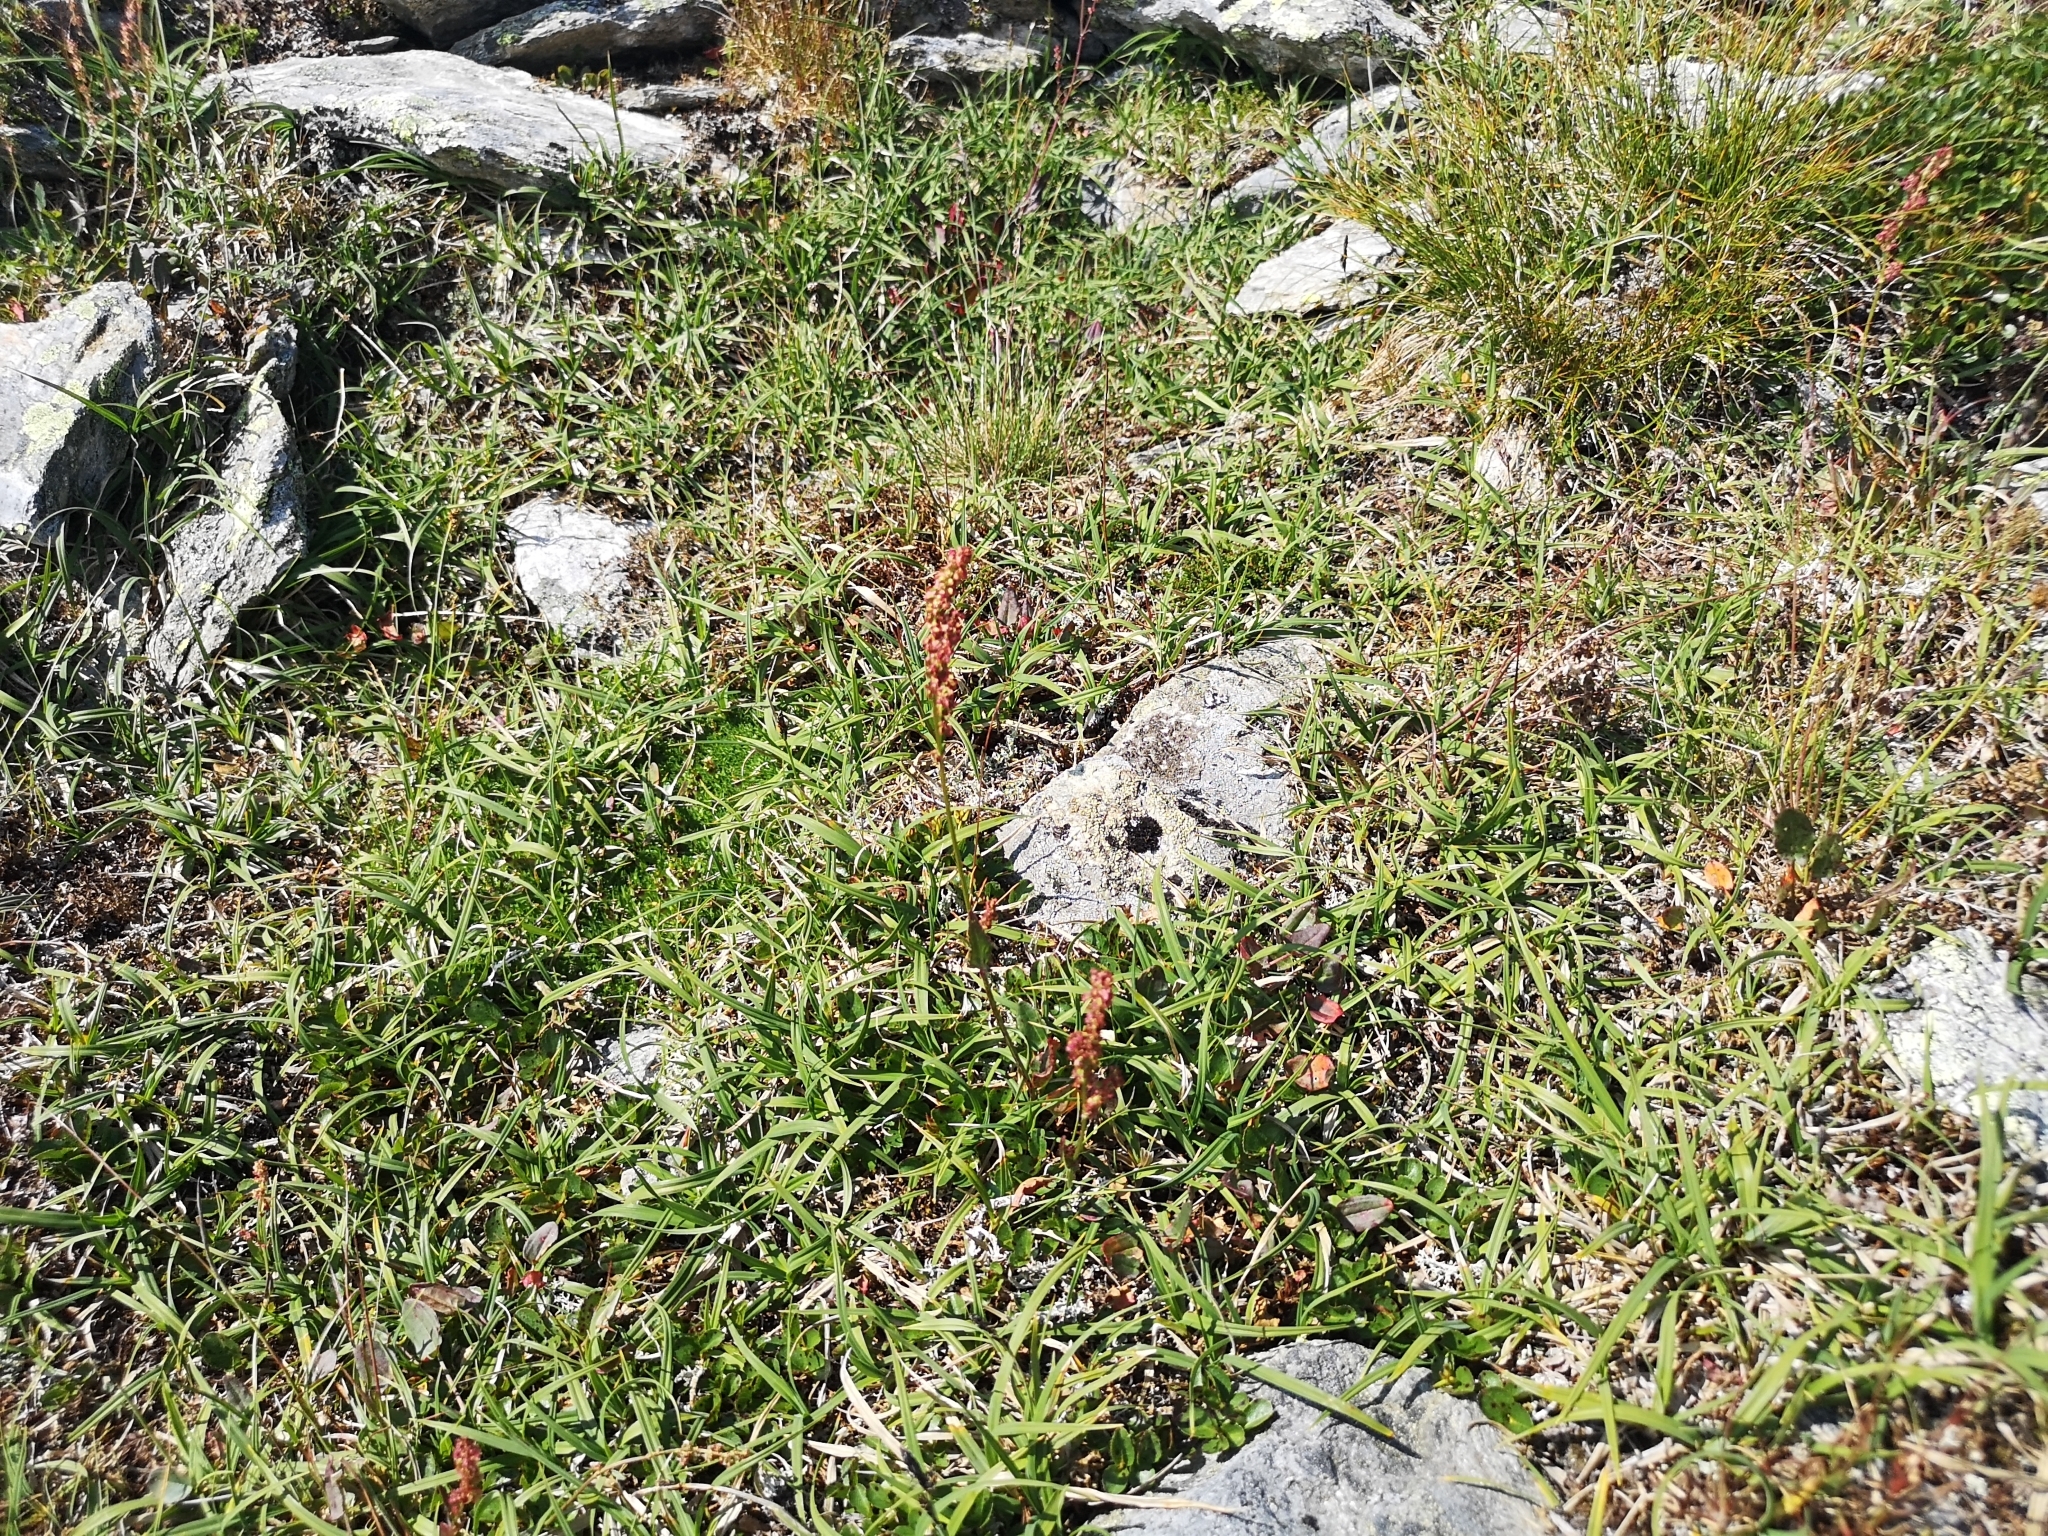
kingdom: Plantae
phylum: Tracheophyta
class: Magnoliopsida
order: Caryophyllales
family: Polygonaceae
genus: Rumex
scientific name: Rumex acetosa
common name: Garden sorrel
